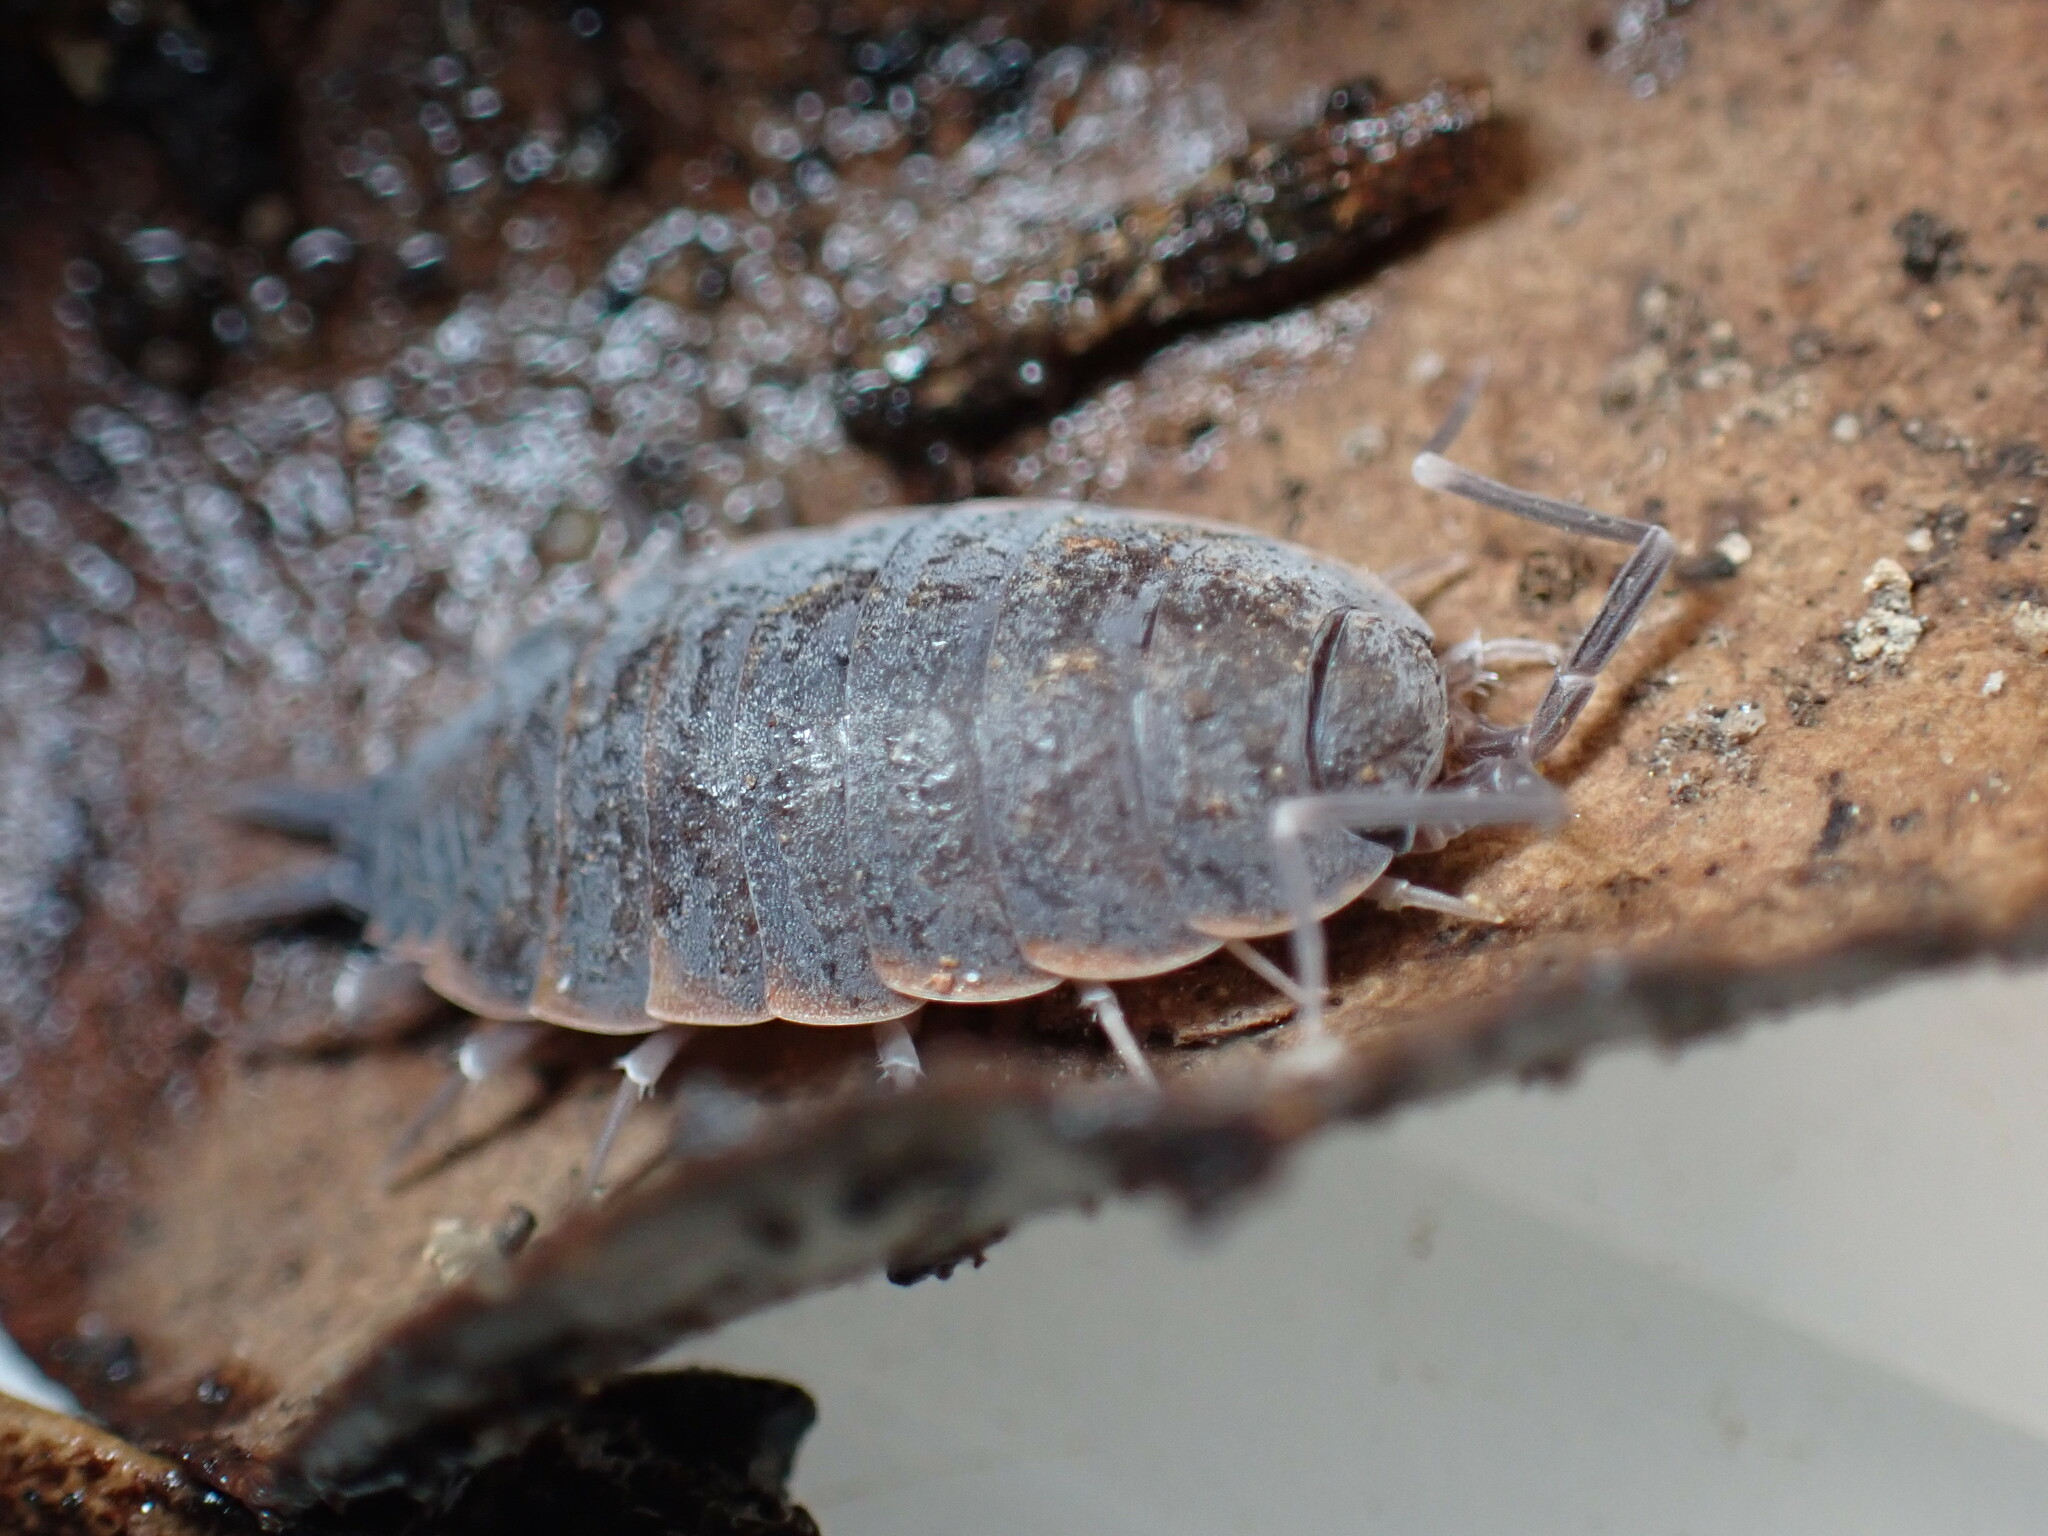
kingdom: Animalia
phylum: Arthropoda
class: Malacostraca
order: Isopoda
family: Porcellionidae
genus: Porcellionides
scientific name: Porcellionides pruinosus
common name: Plum woodlouse
